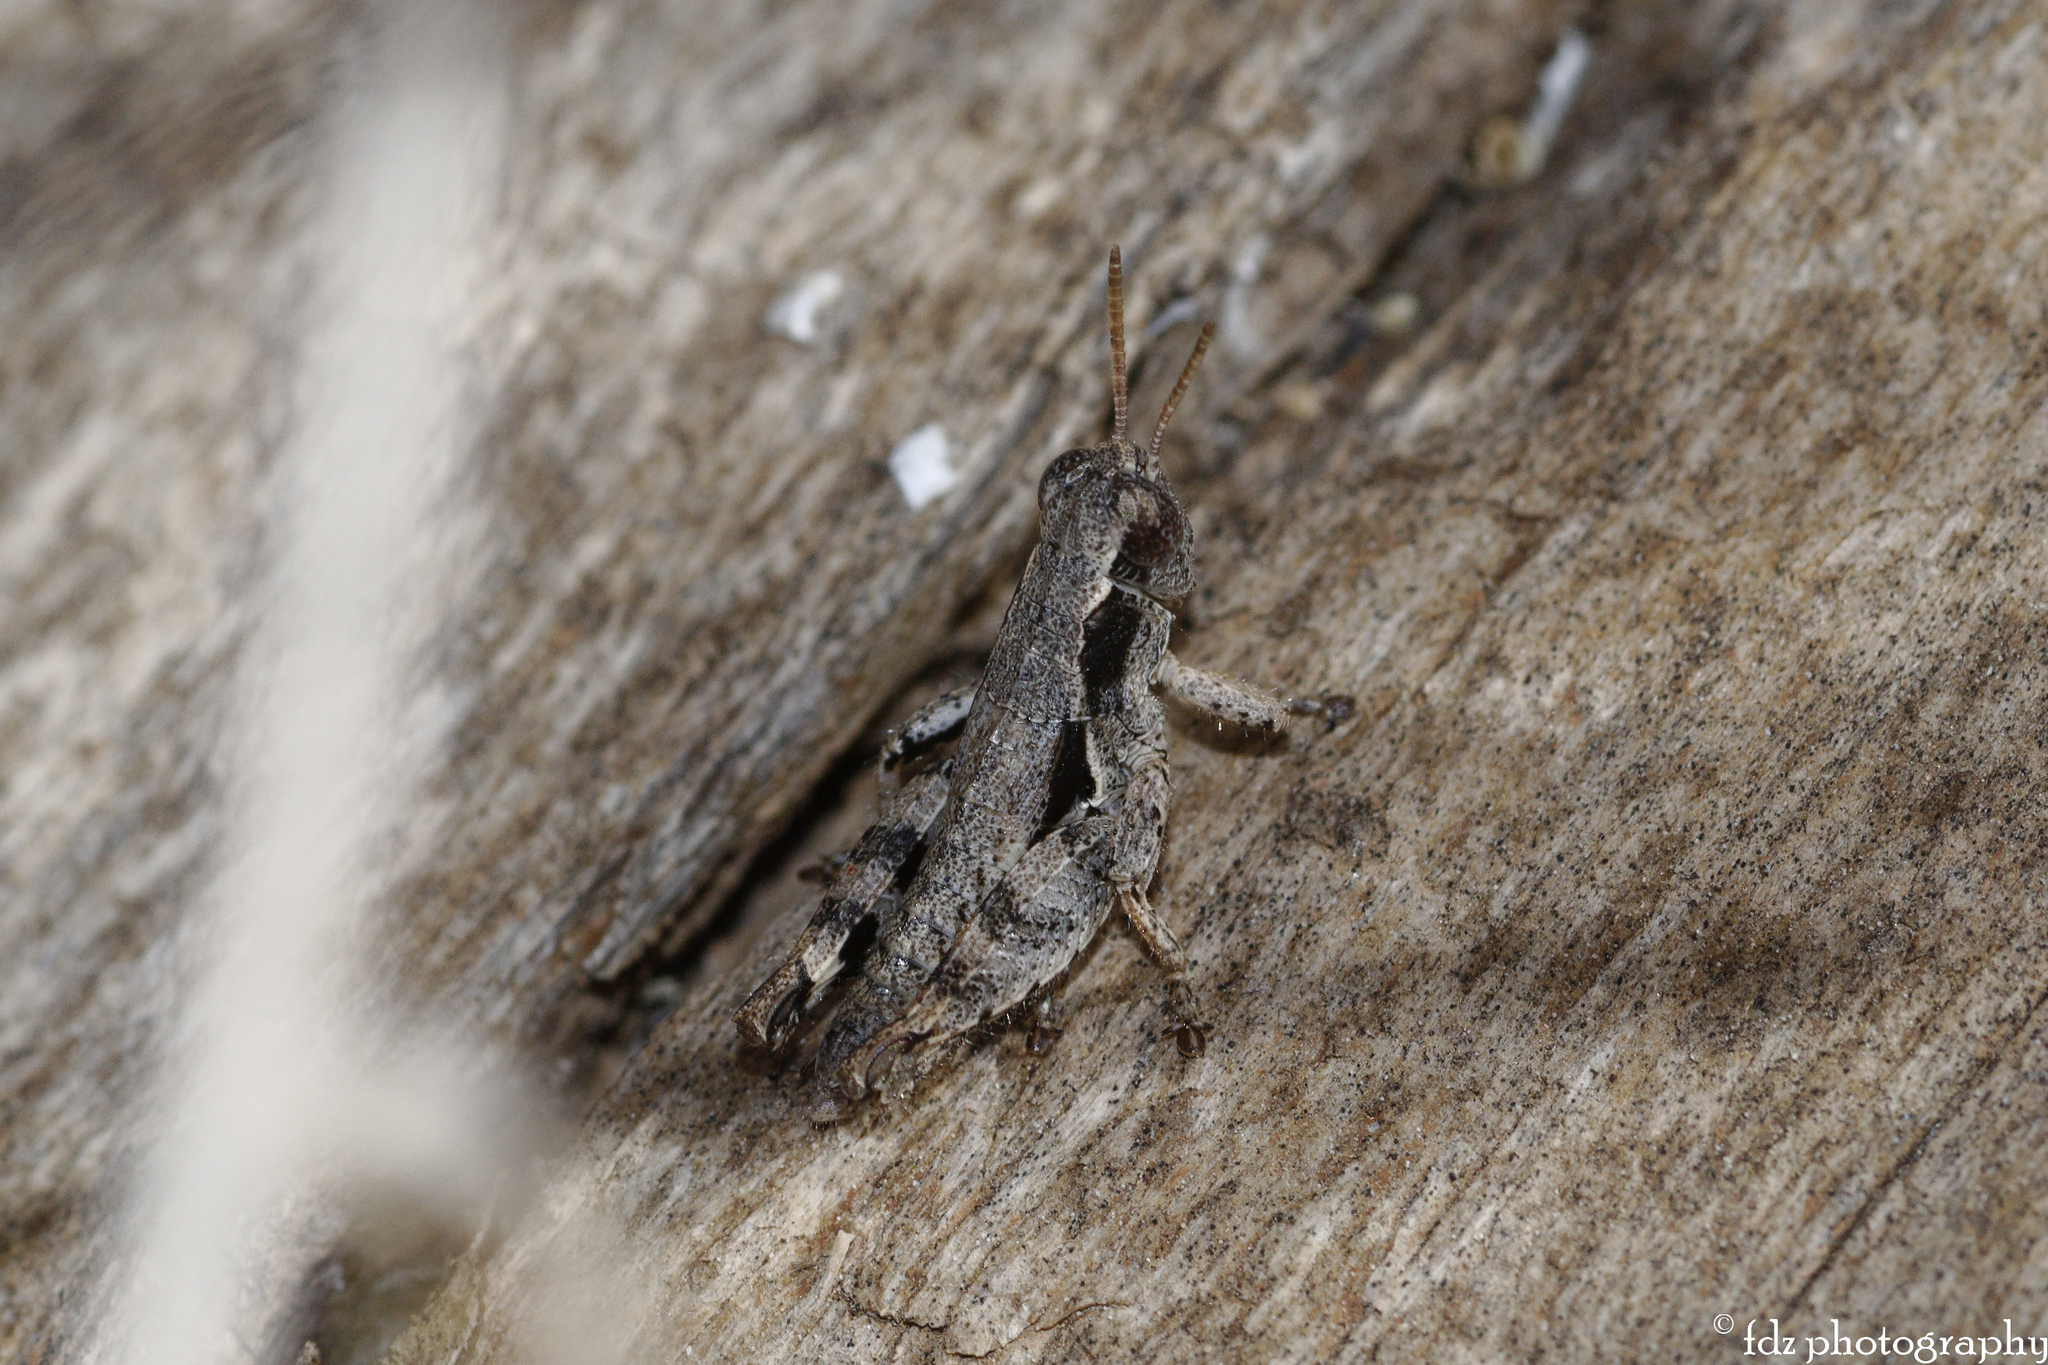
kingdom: Animalia
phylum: Arthropoda
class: Insecta
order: Orthoptera
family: Acrididae
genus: Pezotettix
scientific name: Pezotettix giornae
